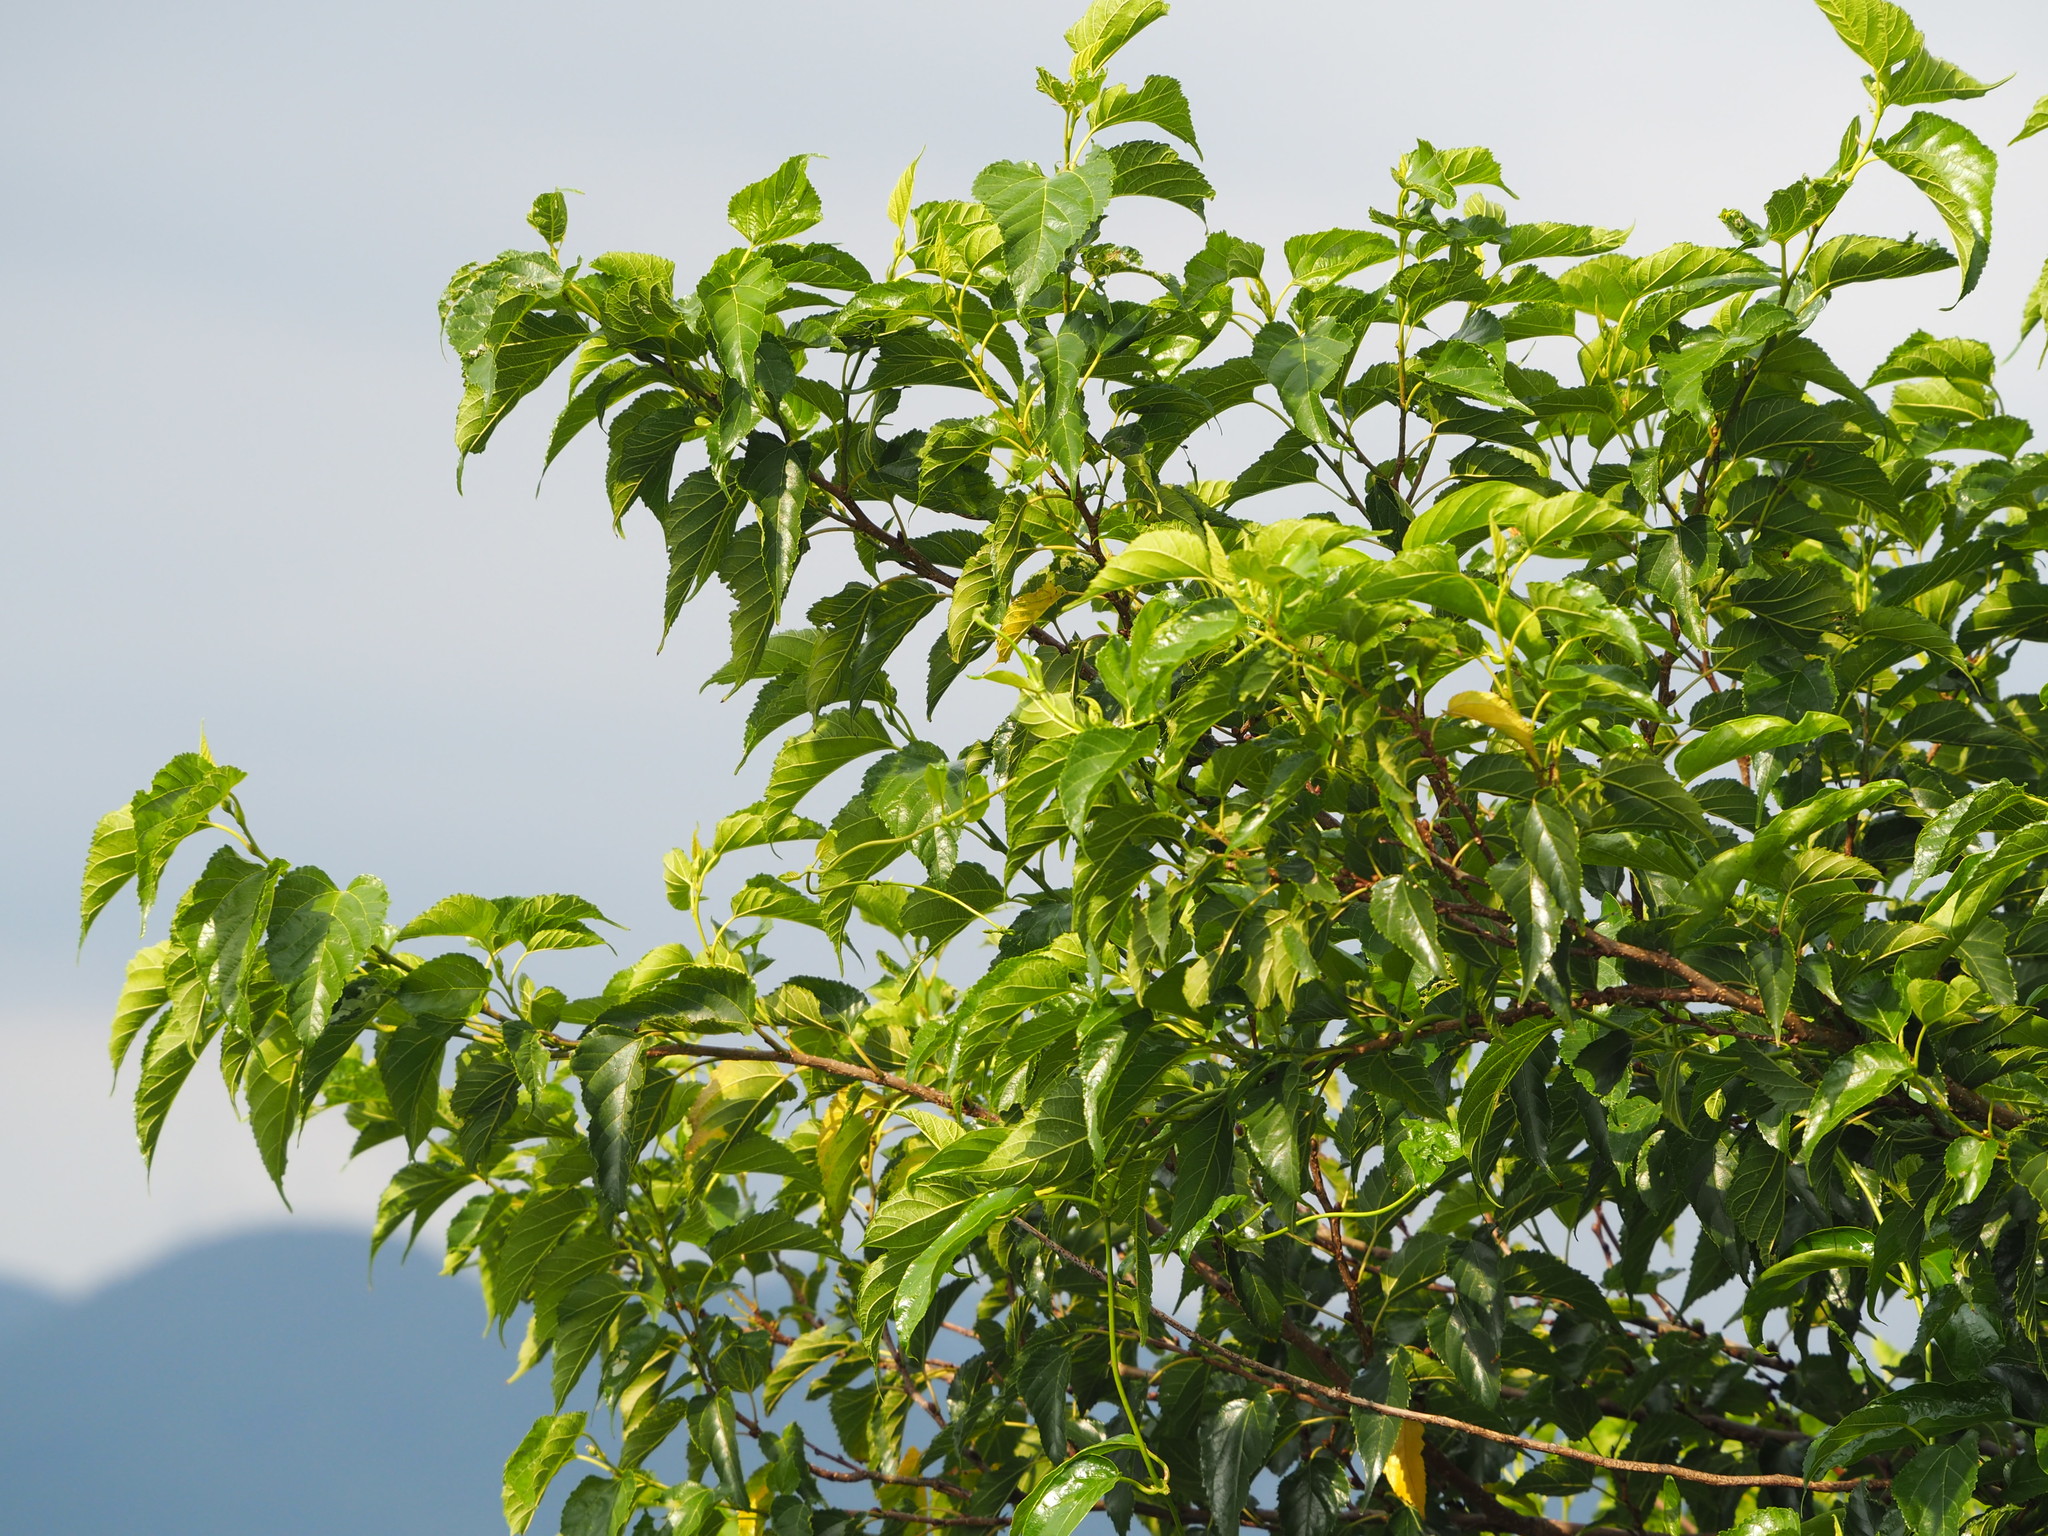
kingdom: Plantae
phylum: Tracheophyta
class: Magnoliopsida
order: Rosales
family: Moraceae
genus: Morus
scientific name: Morus indica
